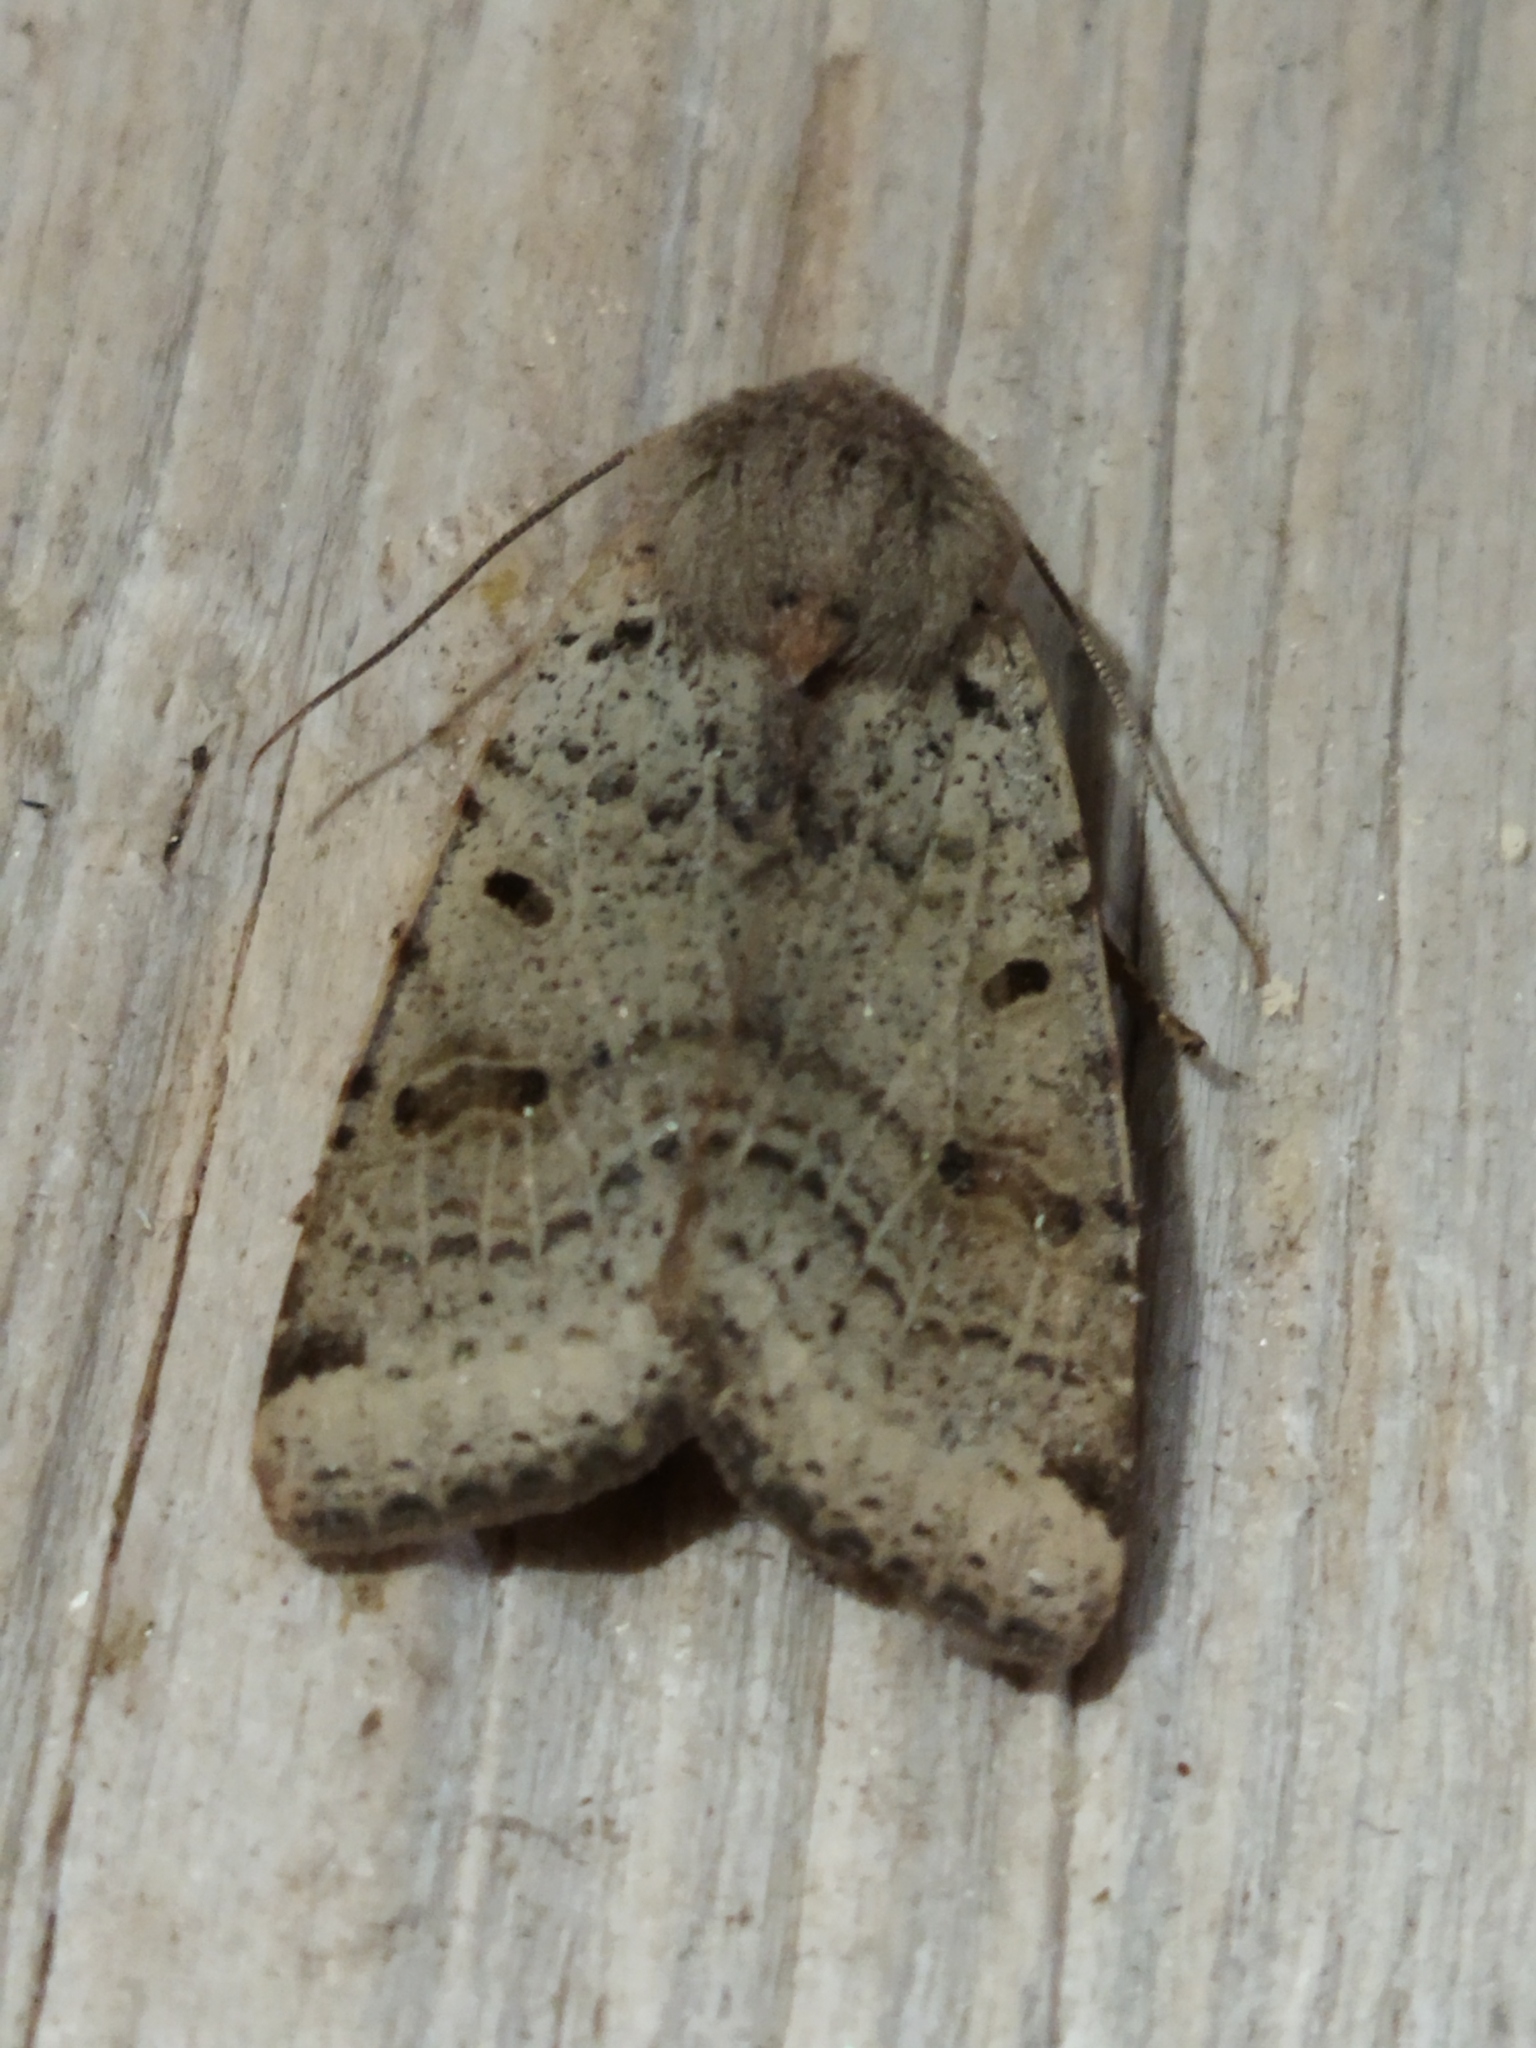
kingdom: Animalia
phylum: Arthropoda
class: Insecta
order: Lepidoptera
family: Noctuidae
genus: Agrochola
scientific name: Agrochola lychnidis
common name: Beaded chestnut
